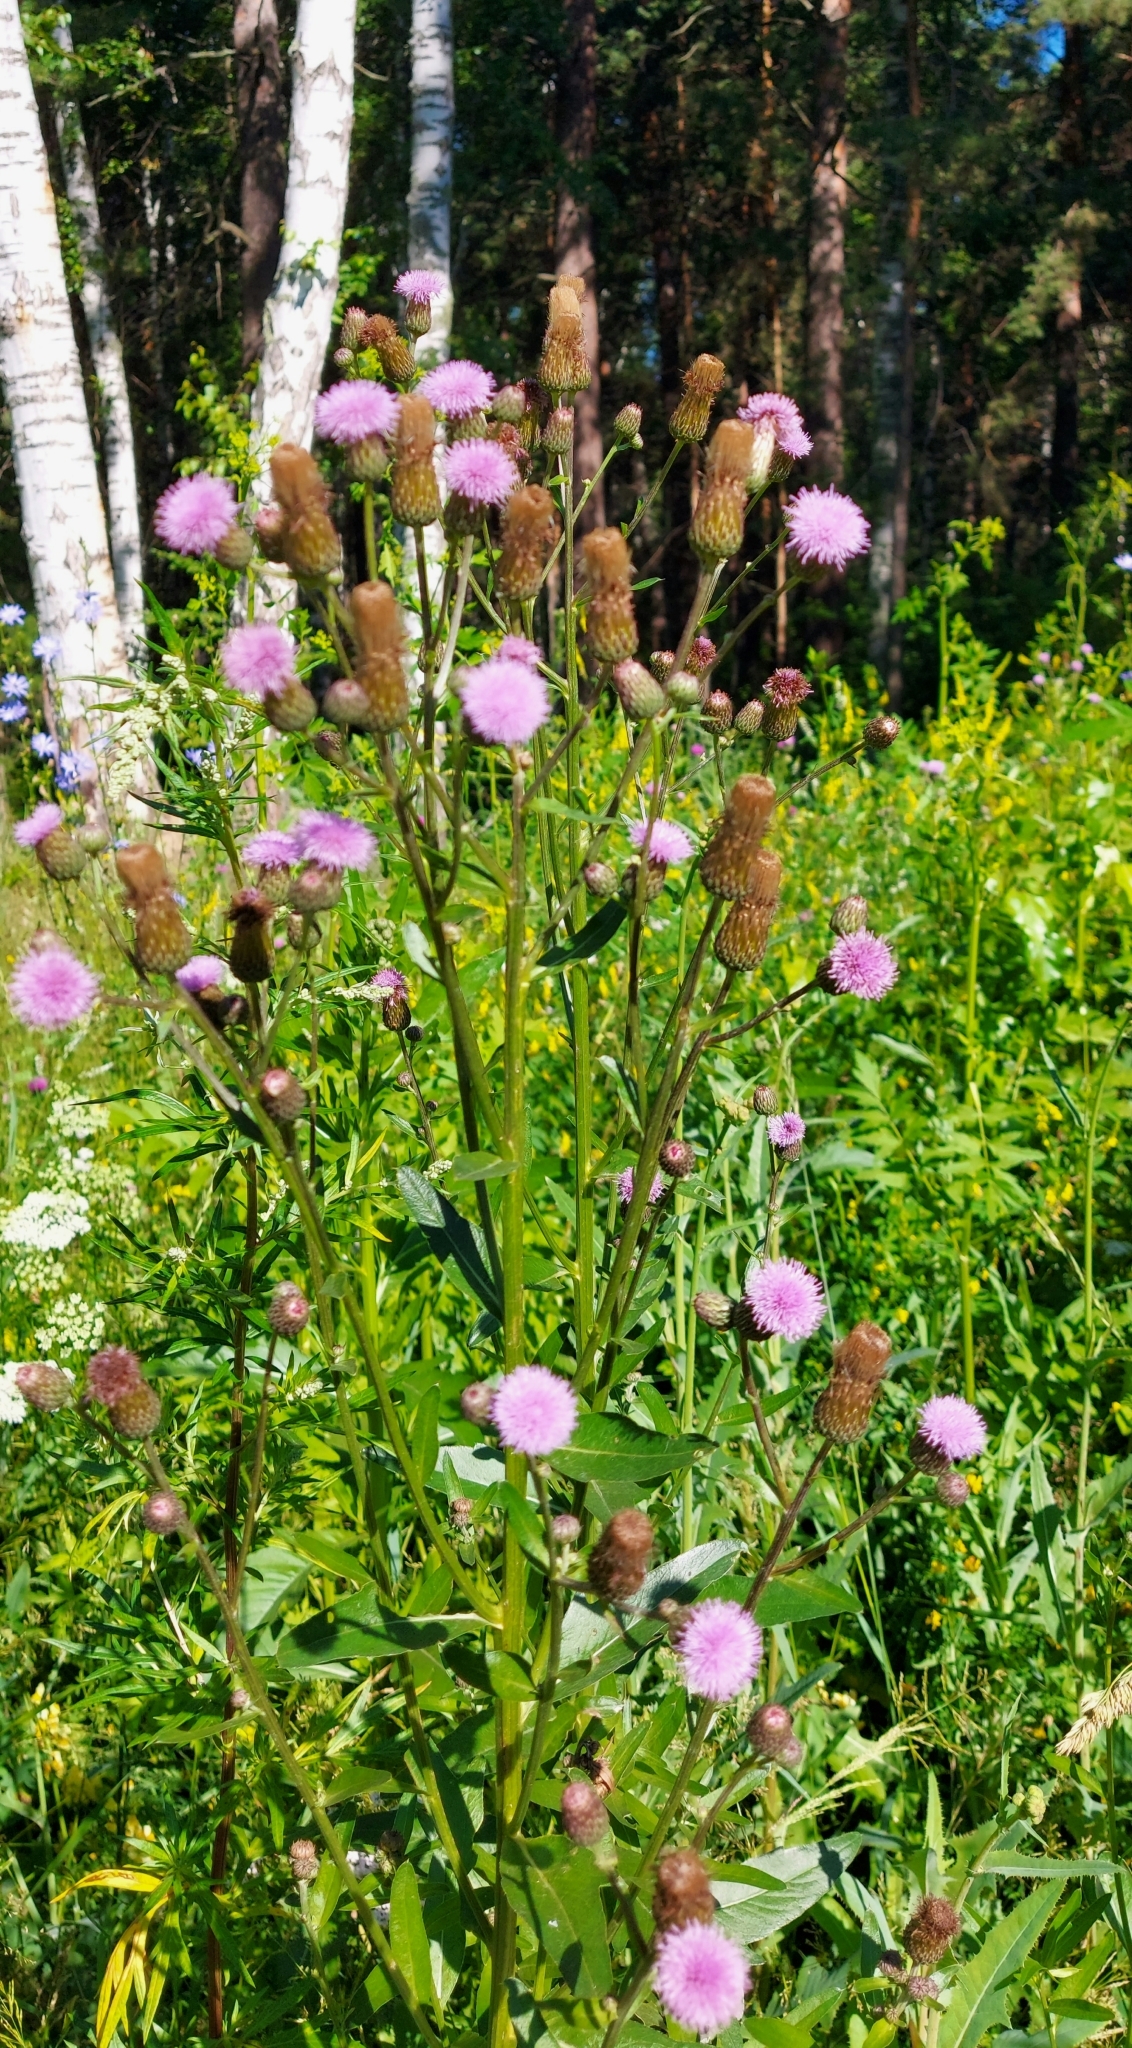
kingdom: Plantae
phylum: Tracheophyta
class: Magnoliopsida
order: Asterales
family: Asteraceae
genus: Cirsium
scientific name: Cirsium arvense
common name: Creeping thistle
